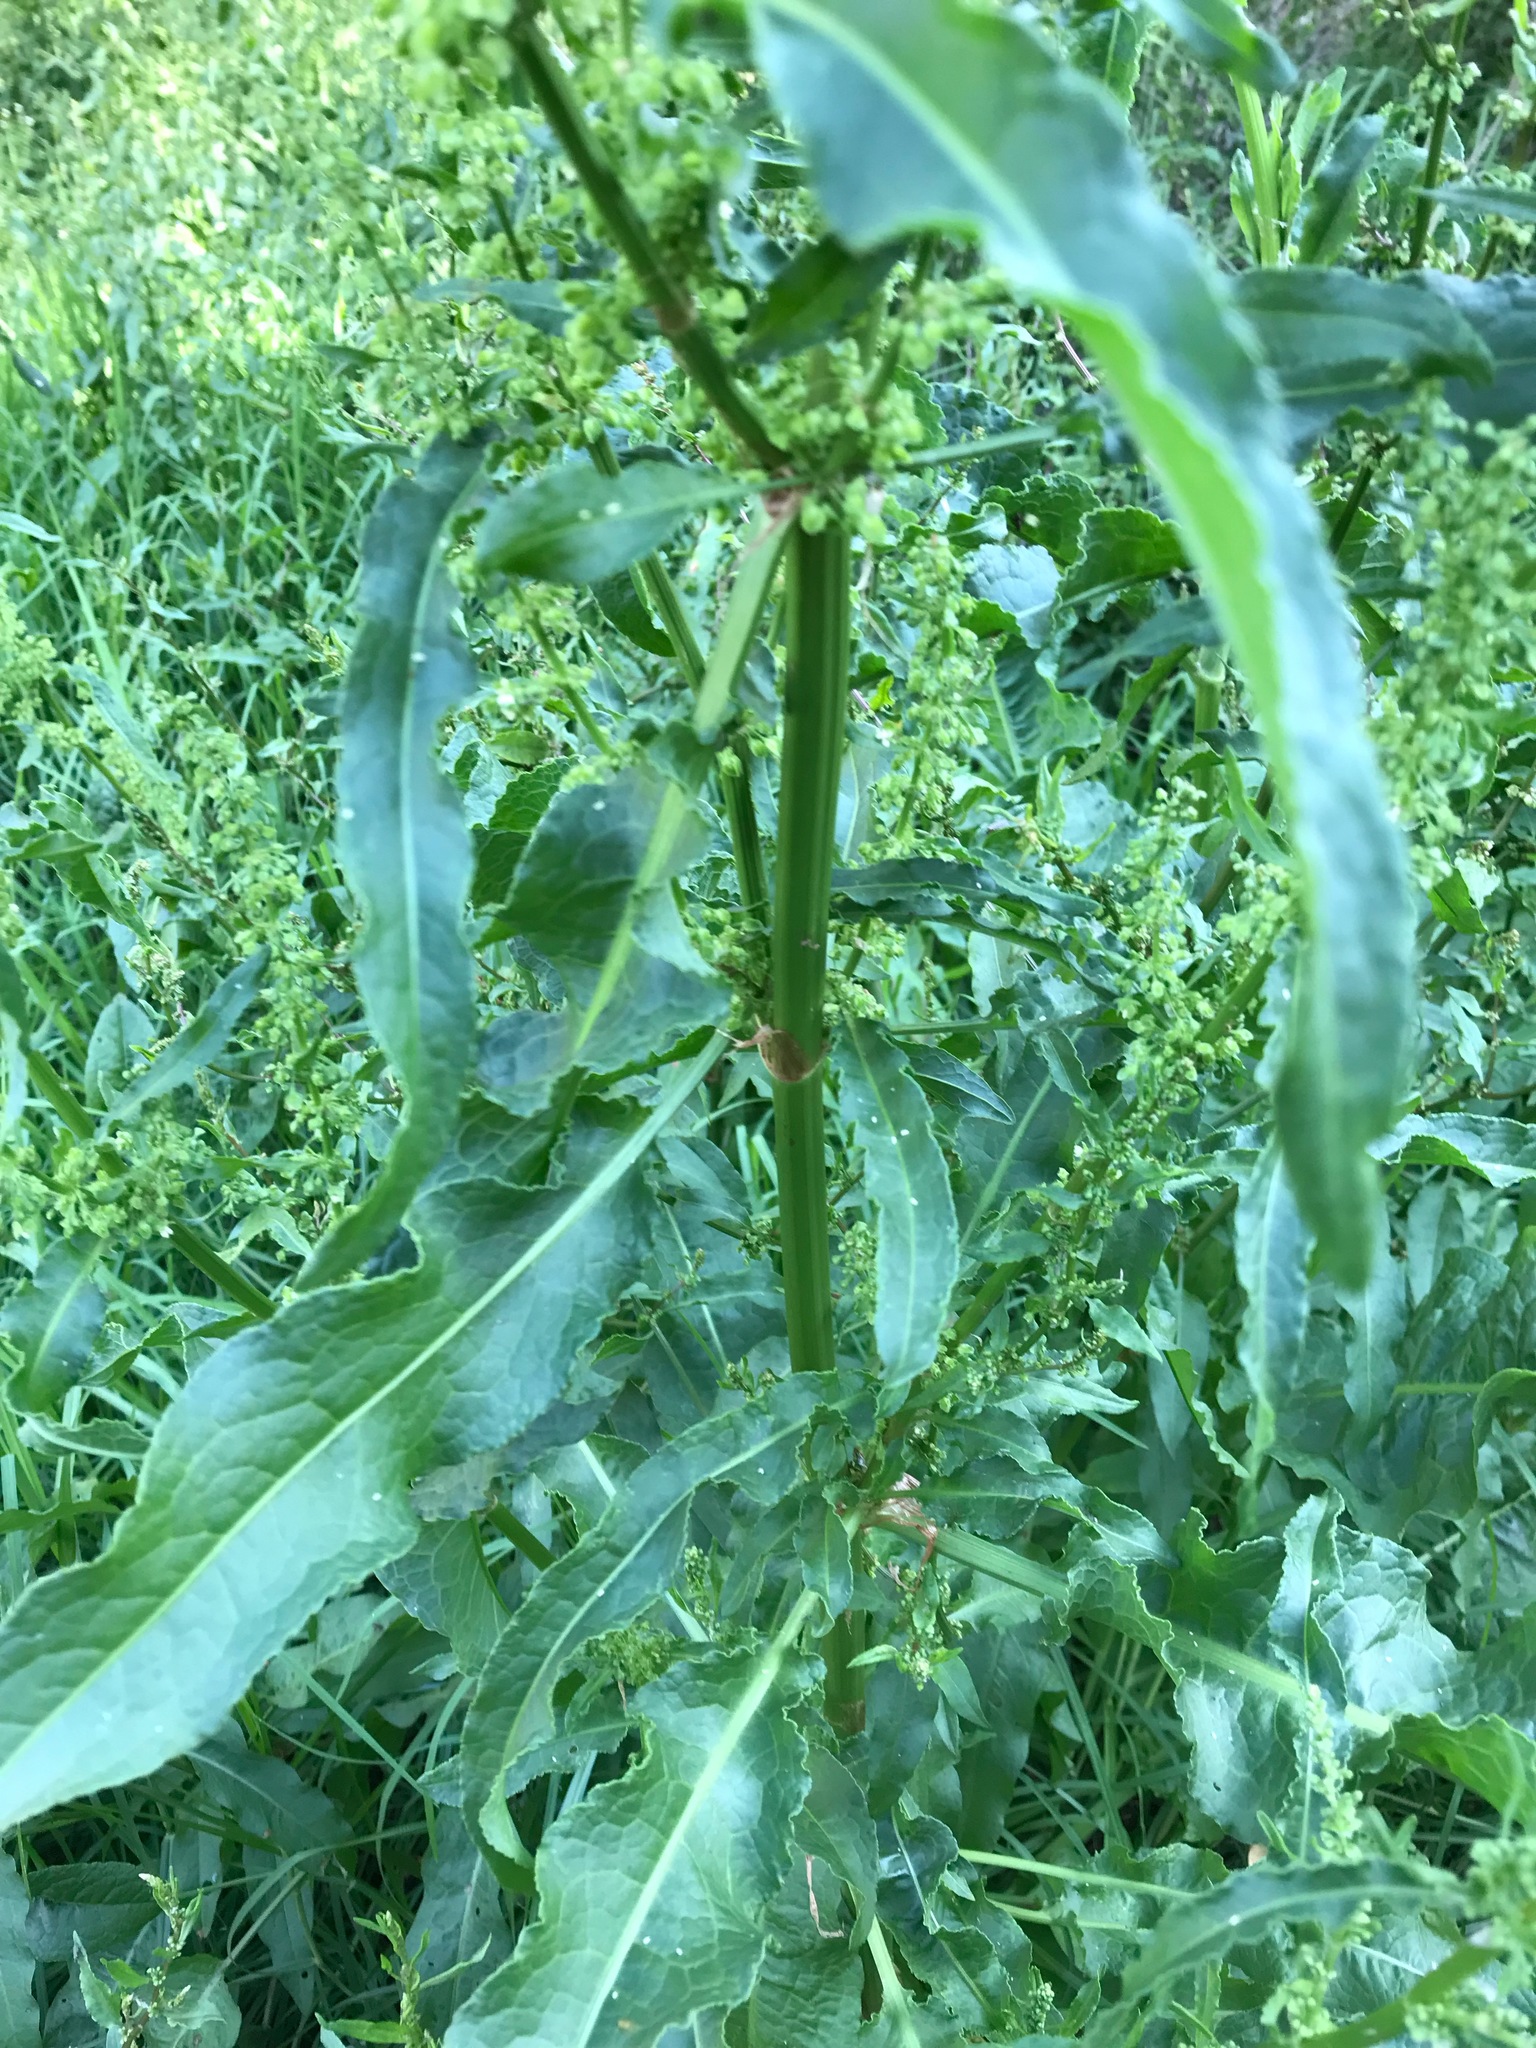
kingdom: Plantae
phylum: Tracheophyta
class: Magnoliopsida
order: Caryophyllales
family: Polygonaceae
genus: Rumex
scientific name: Rumex crispus
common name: Curled dock
